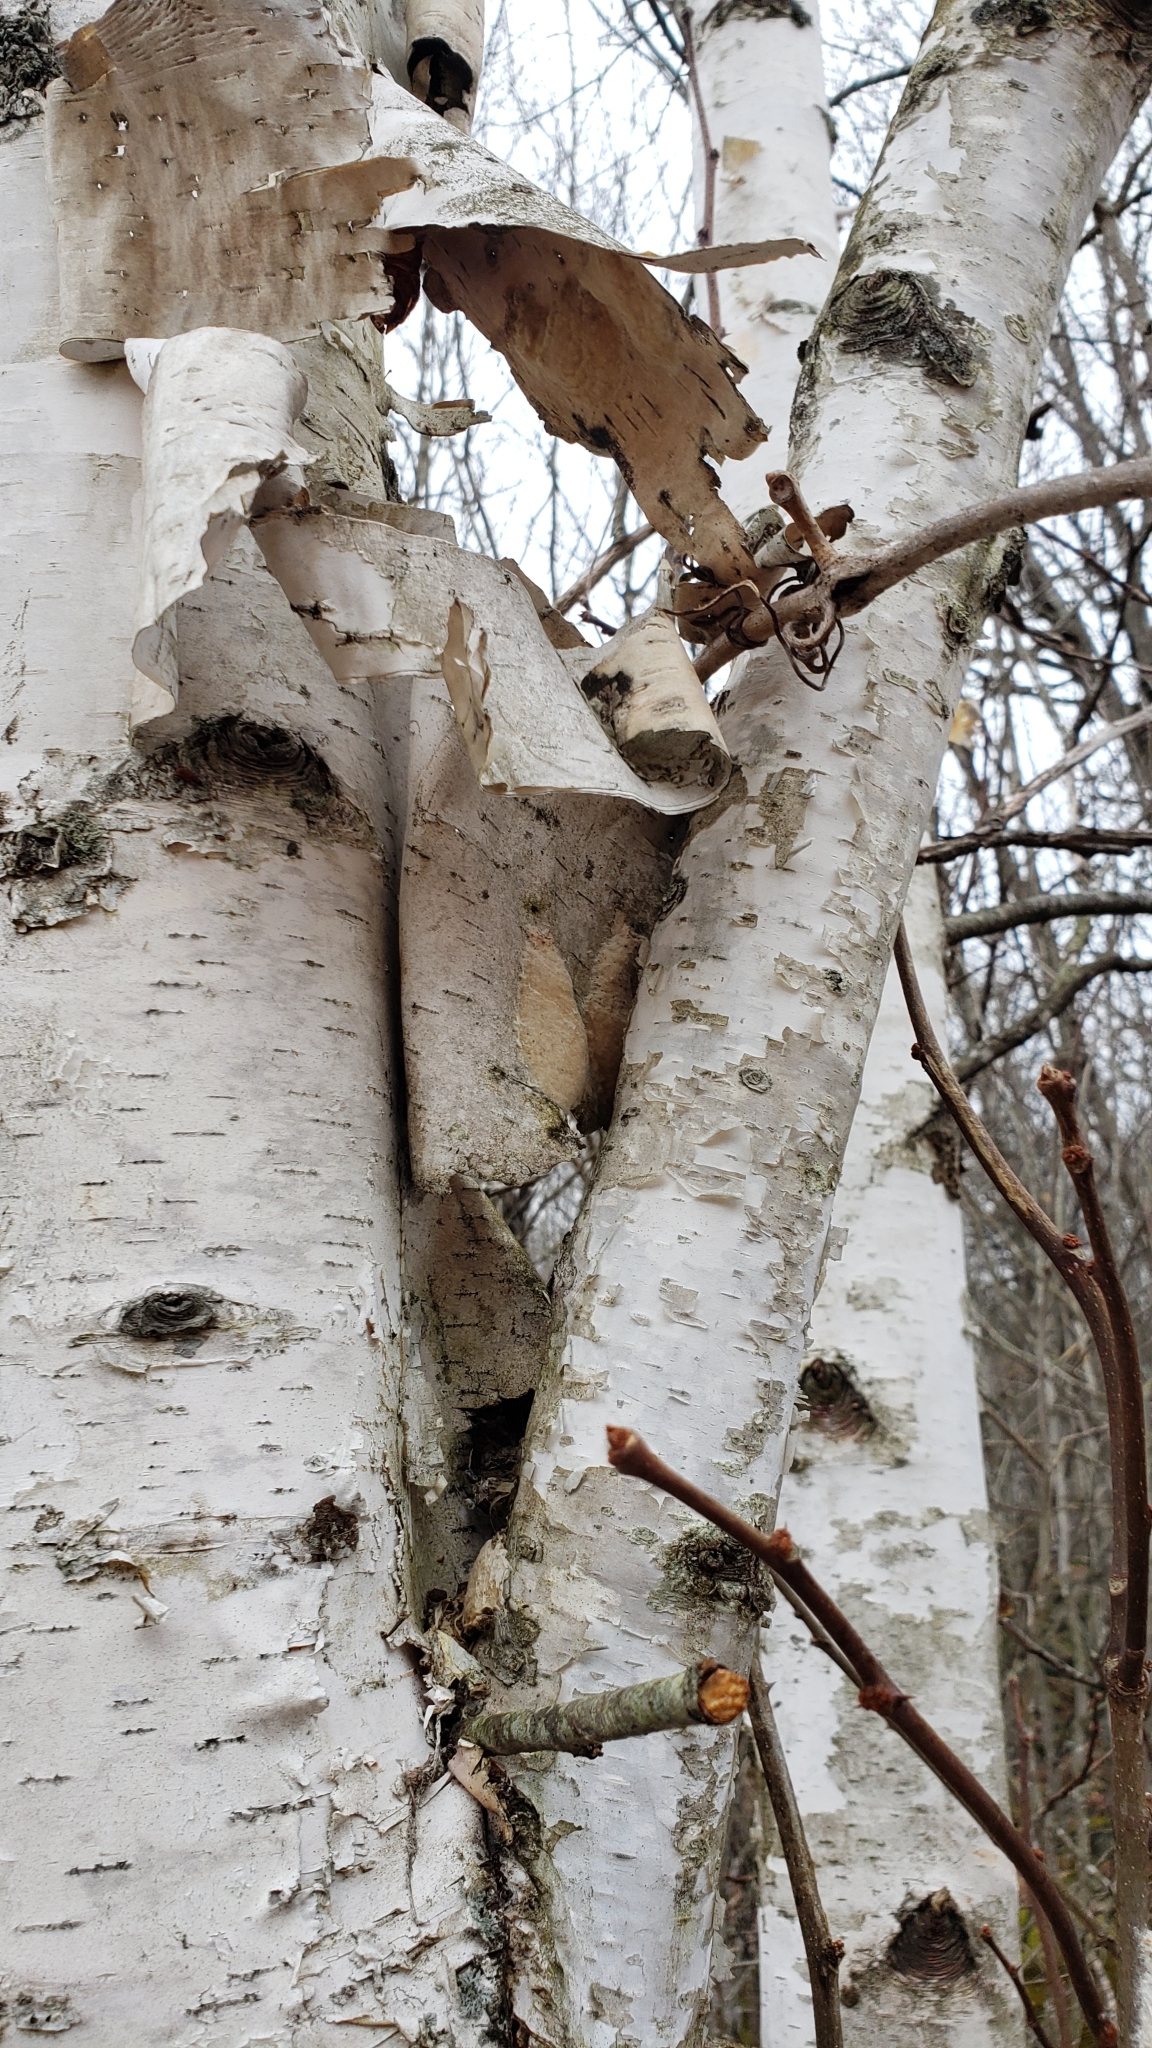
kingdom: Animalia
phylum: Arthropoda
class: Insecta
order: Lepidoptera
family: Erebidae
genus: Lymantria
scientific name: Lymantria dispar
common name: Gypsy moth
